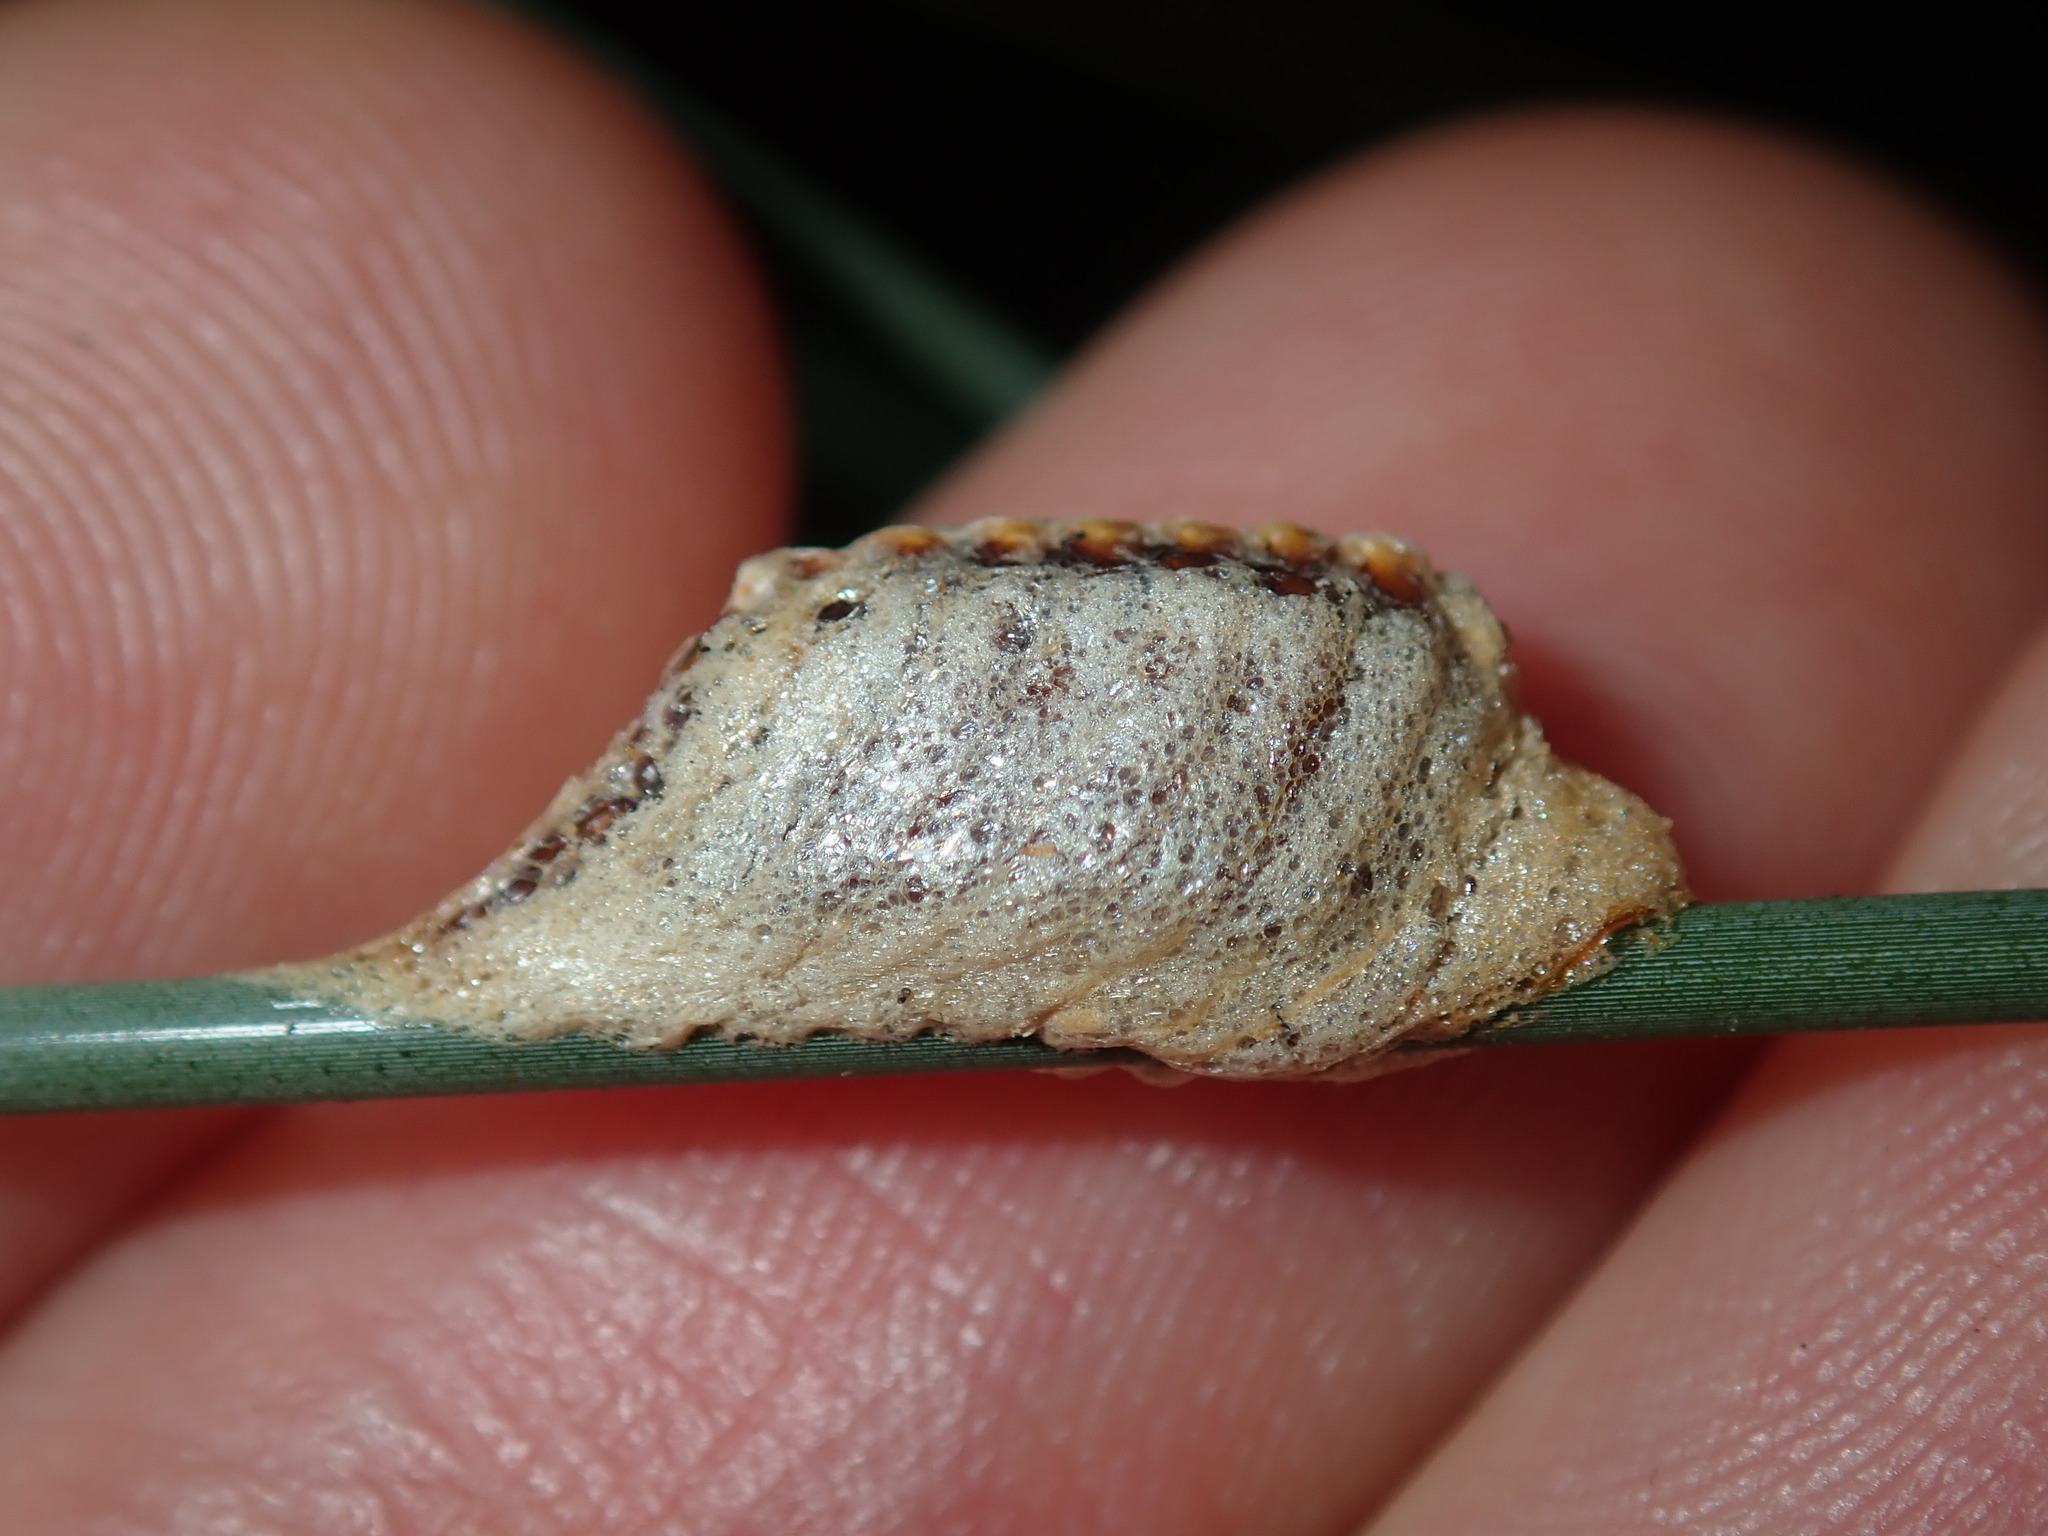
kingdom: Animalia
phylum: Arthropoda
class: Insecta
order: Mantodea
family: Mantidae
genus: Orthodera
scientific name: Orthodera ministralis
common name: Mantis
